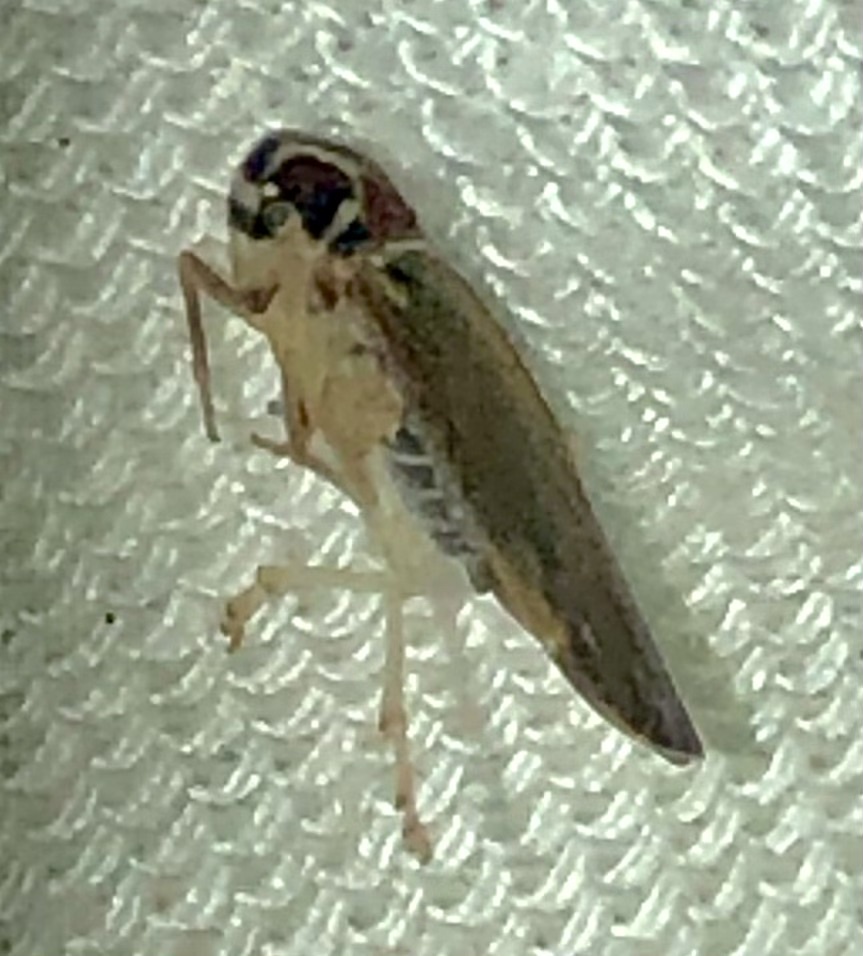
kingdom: Animalia
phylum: Arthropoda
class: Insecta
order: Hemiptera
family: Achilidae
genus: Synecdoche
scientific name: Synecdoche impunctata
